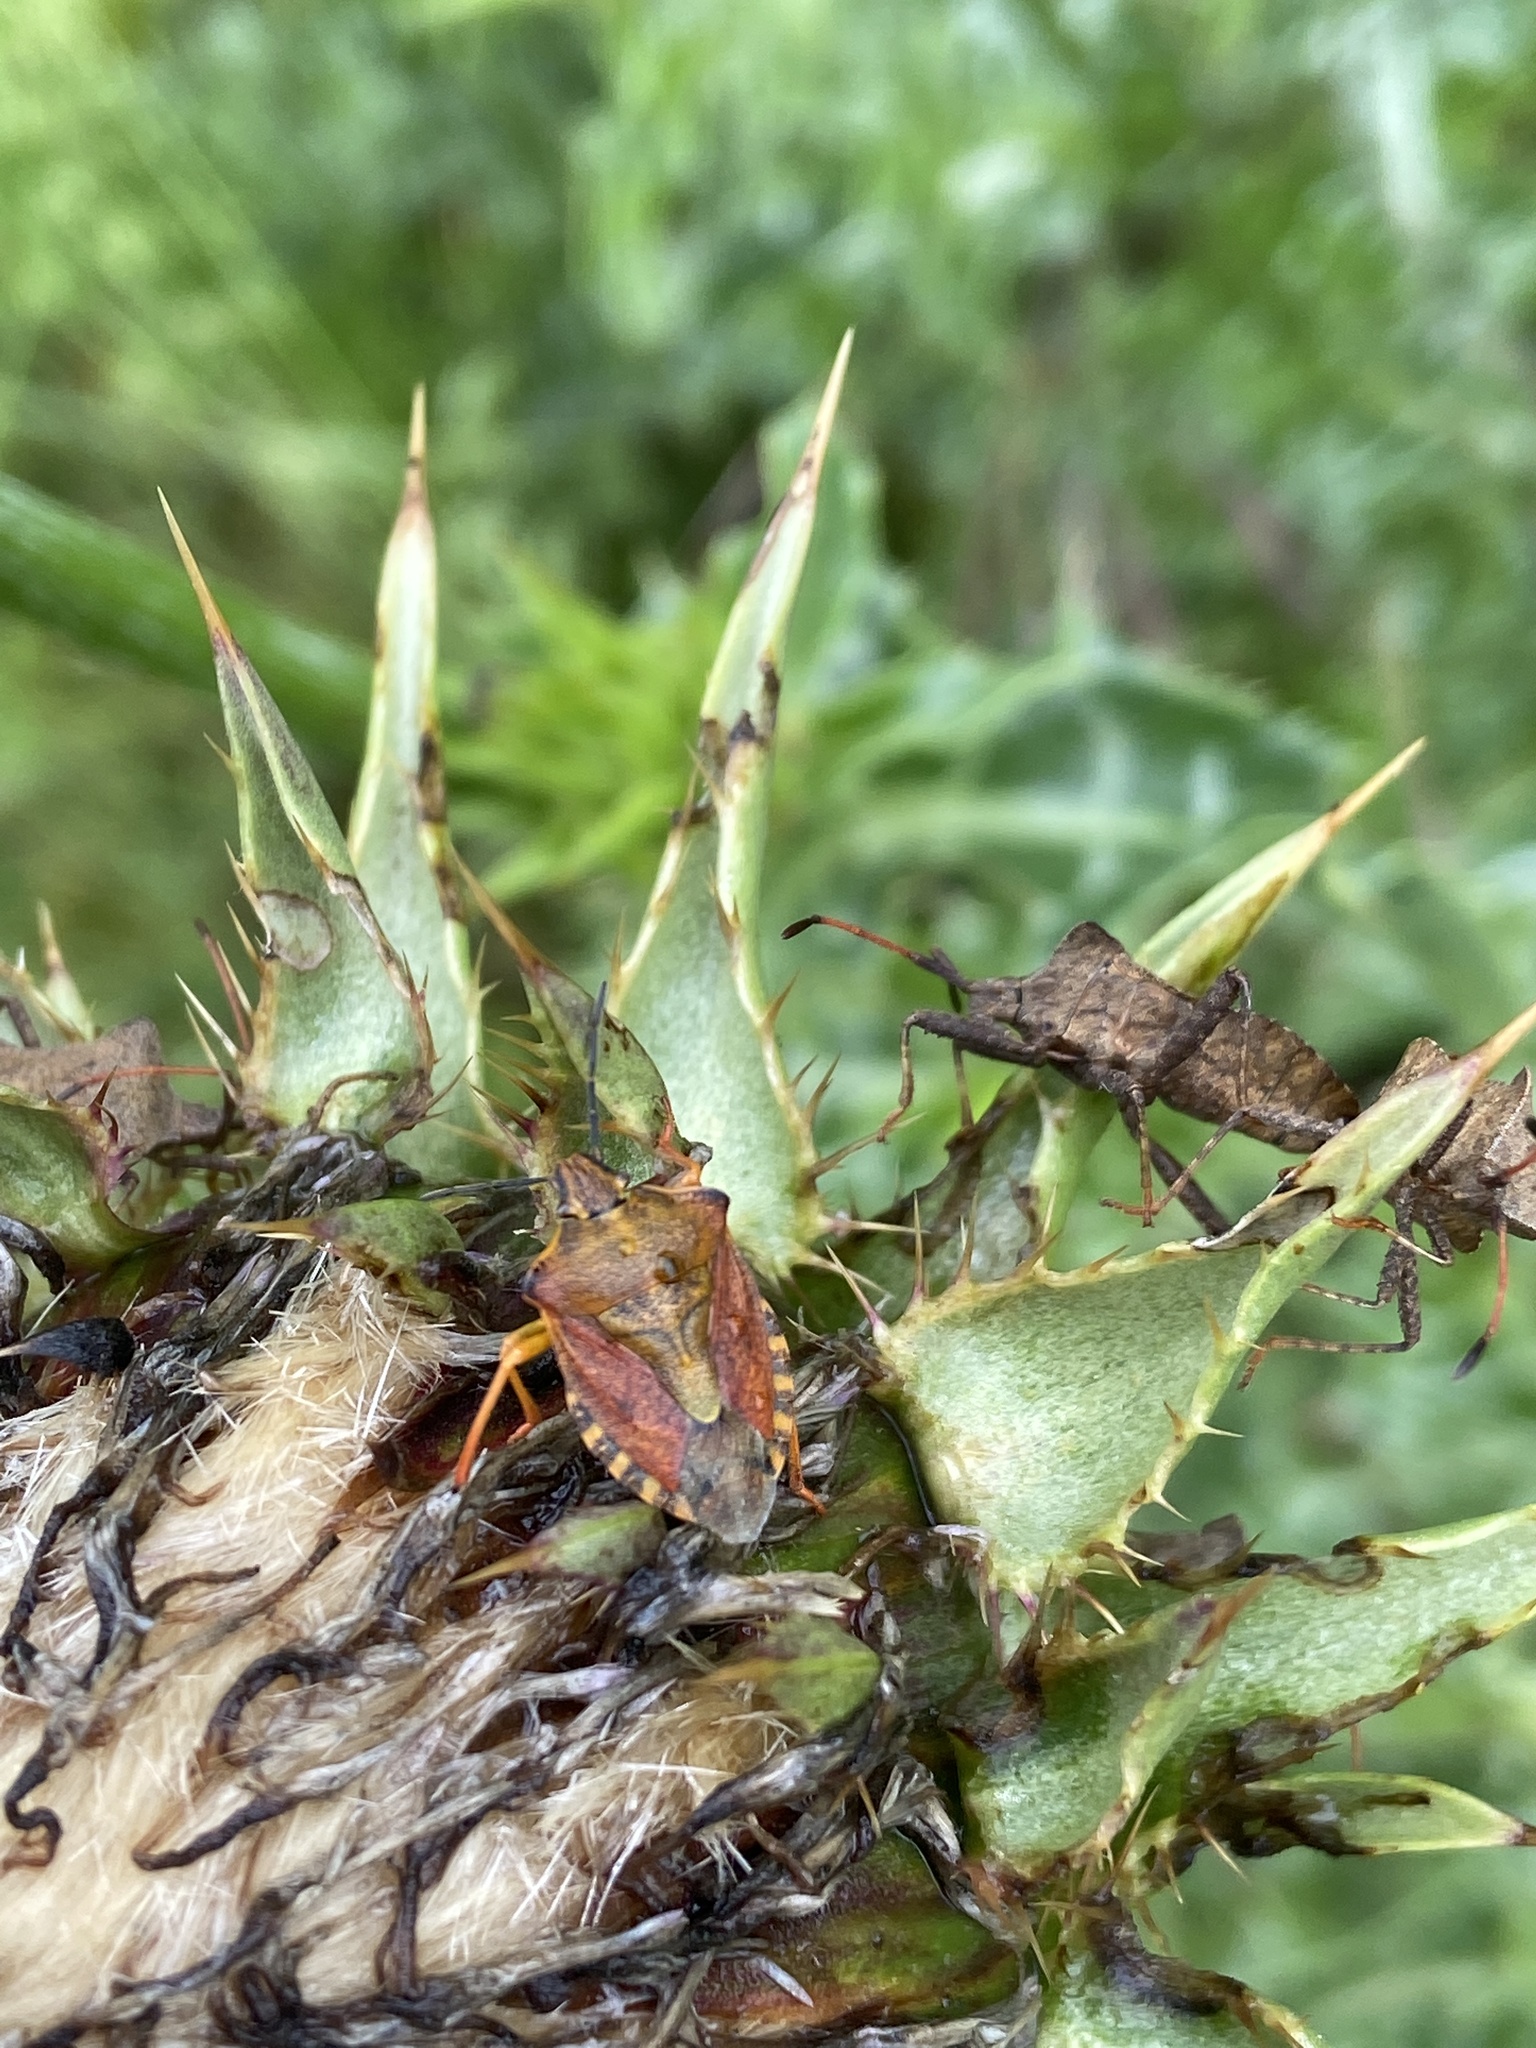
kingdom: Animalia
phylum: Arthropoda
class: Insecta
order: Hemiptera
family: Pentatomidae
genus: Carpocoris
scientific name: Carpocoris purpureipennis
